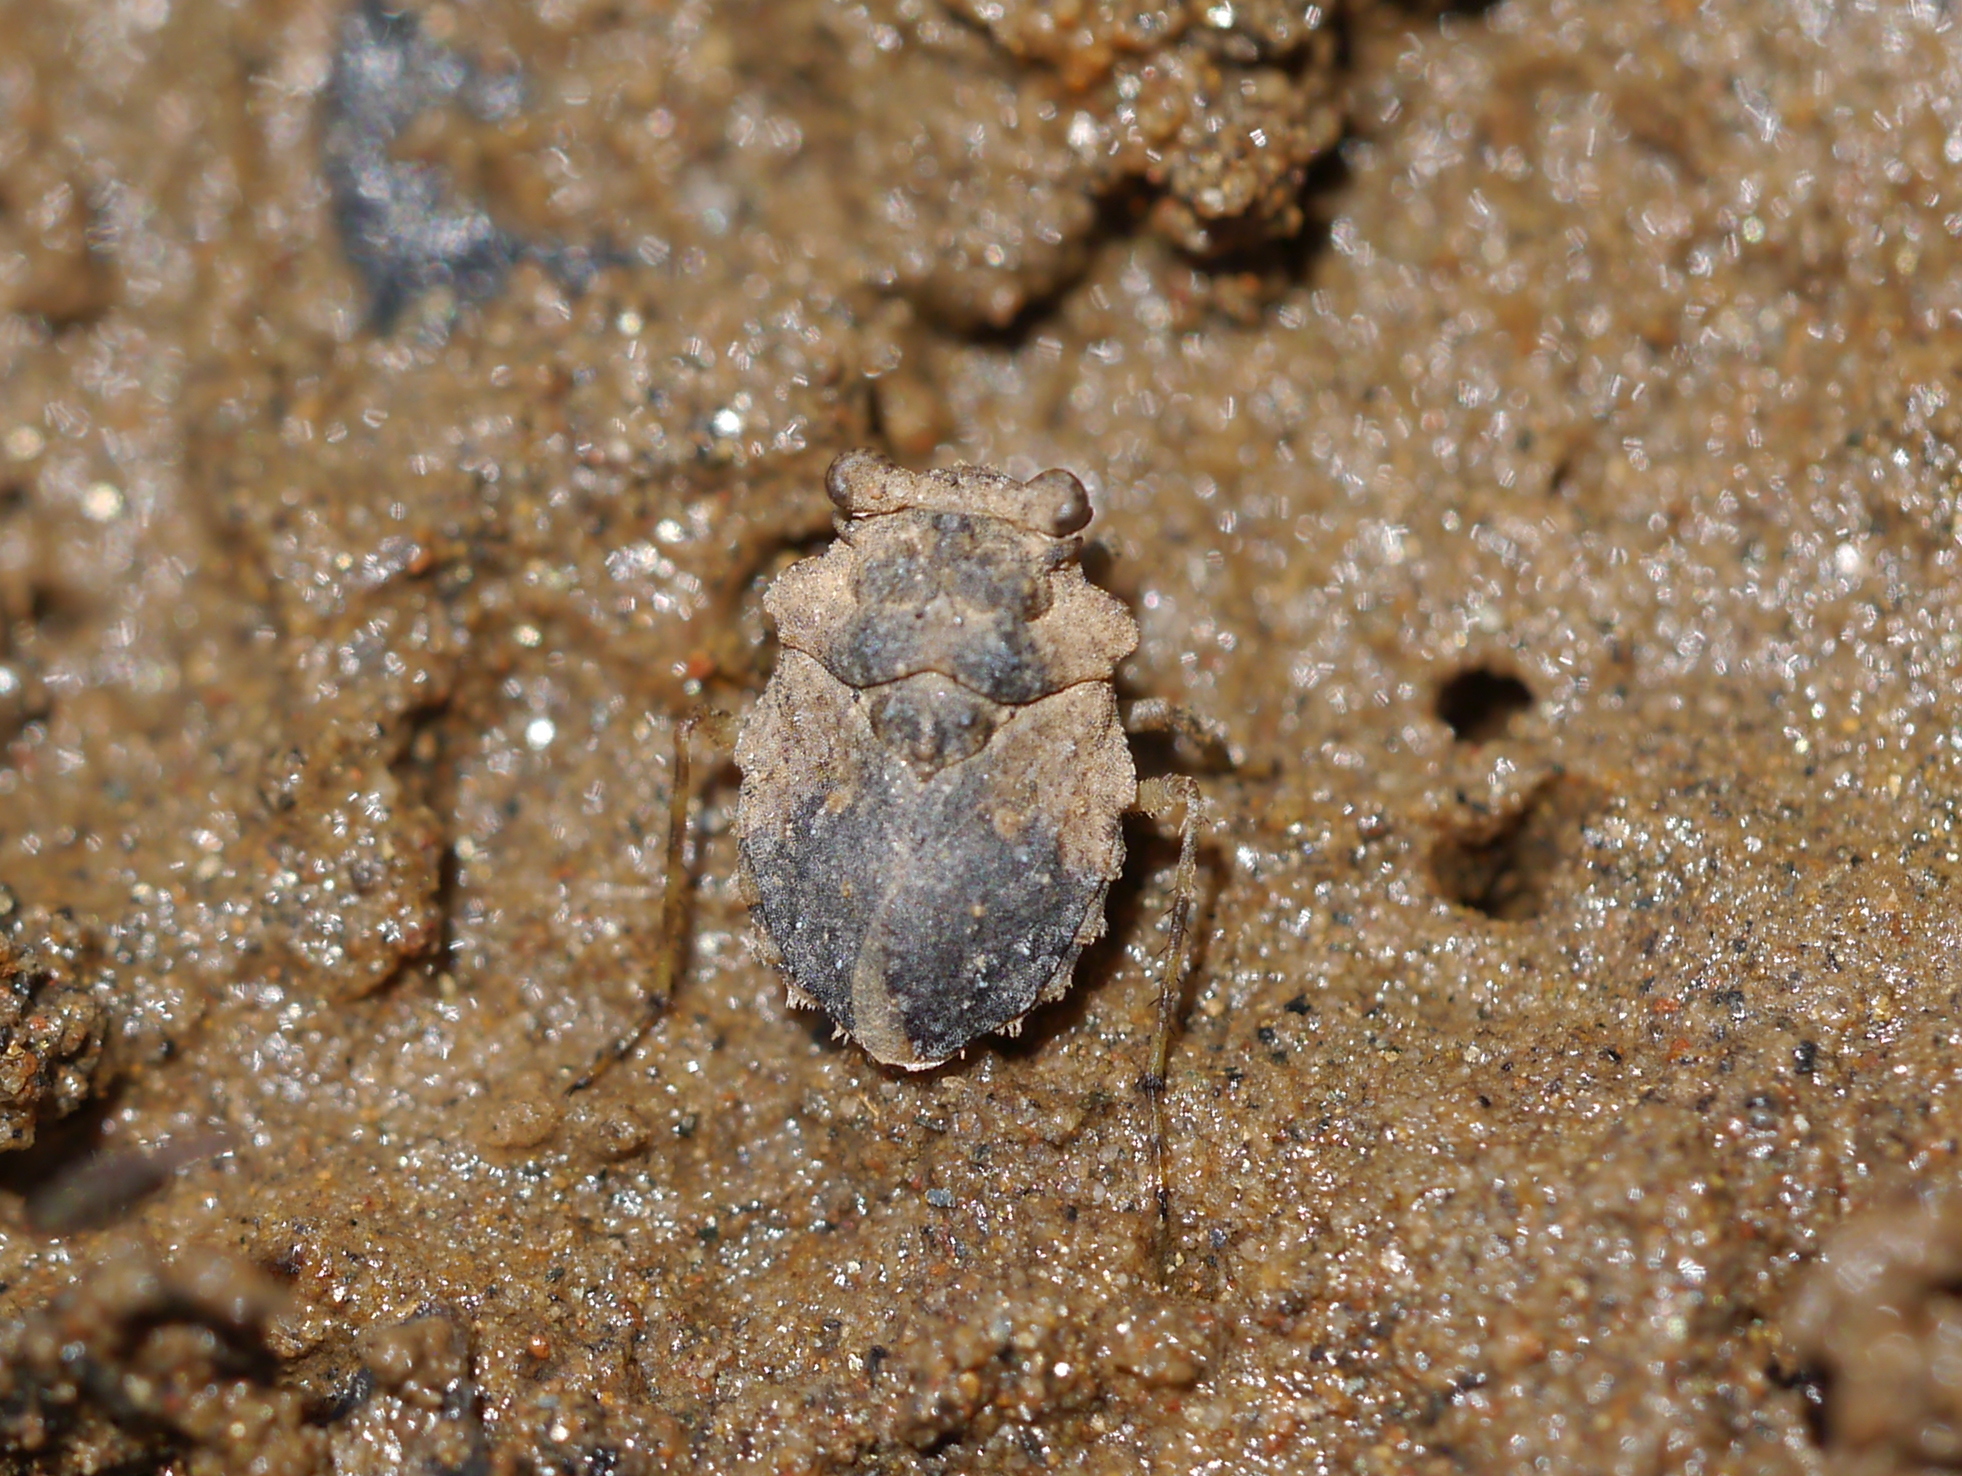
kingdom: Animalia
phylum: Arthropoda
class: Insecta
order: Hemiptera
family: Gelastocoridae
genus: Gelastocoris
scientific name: Gelastocoris oculatus
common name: Toad bug
